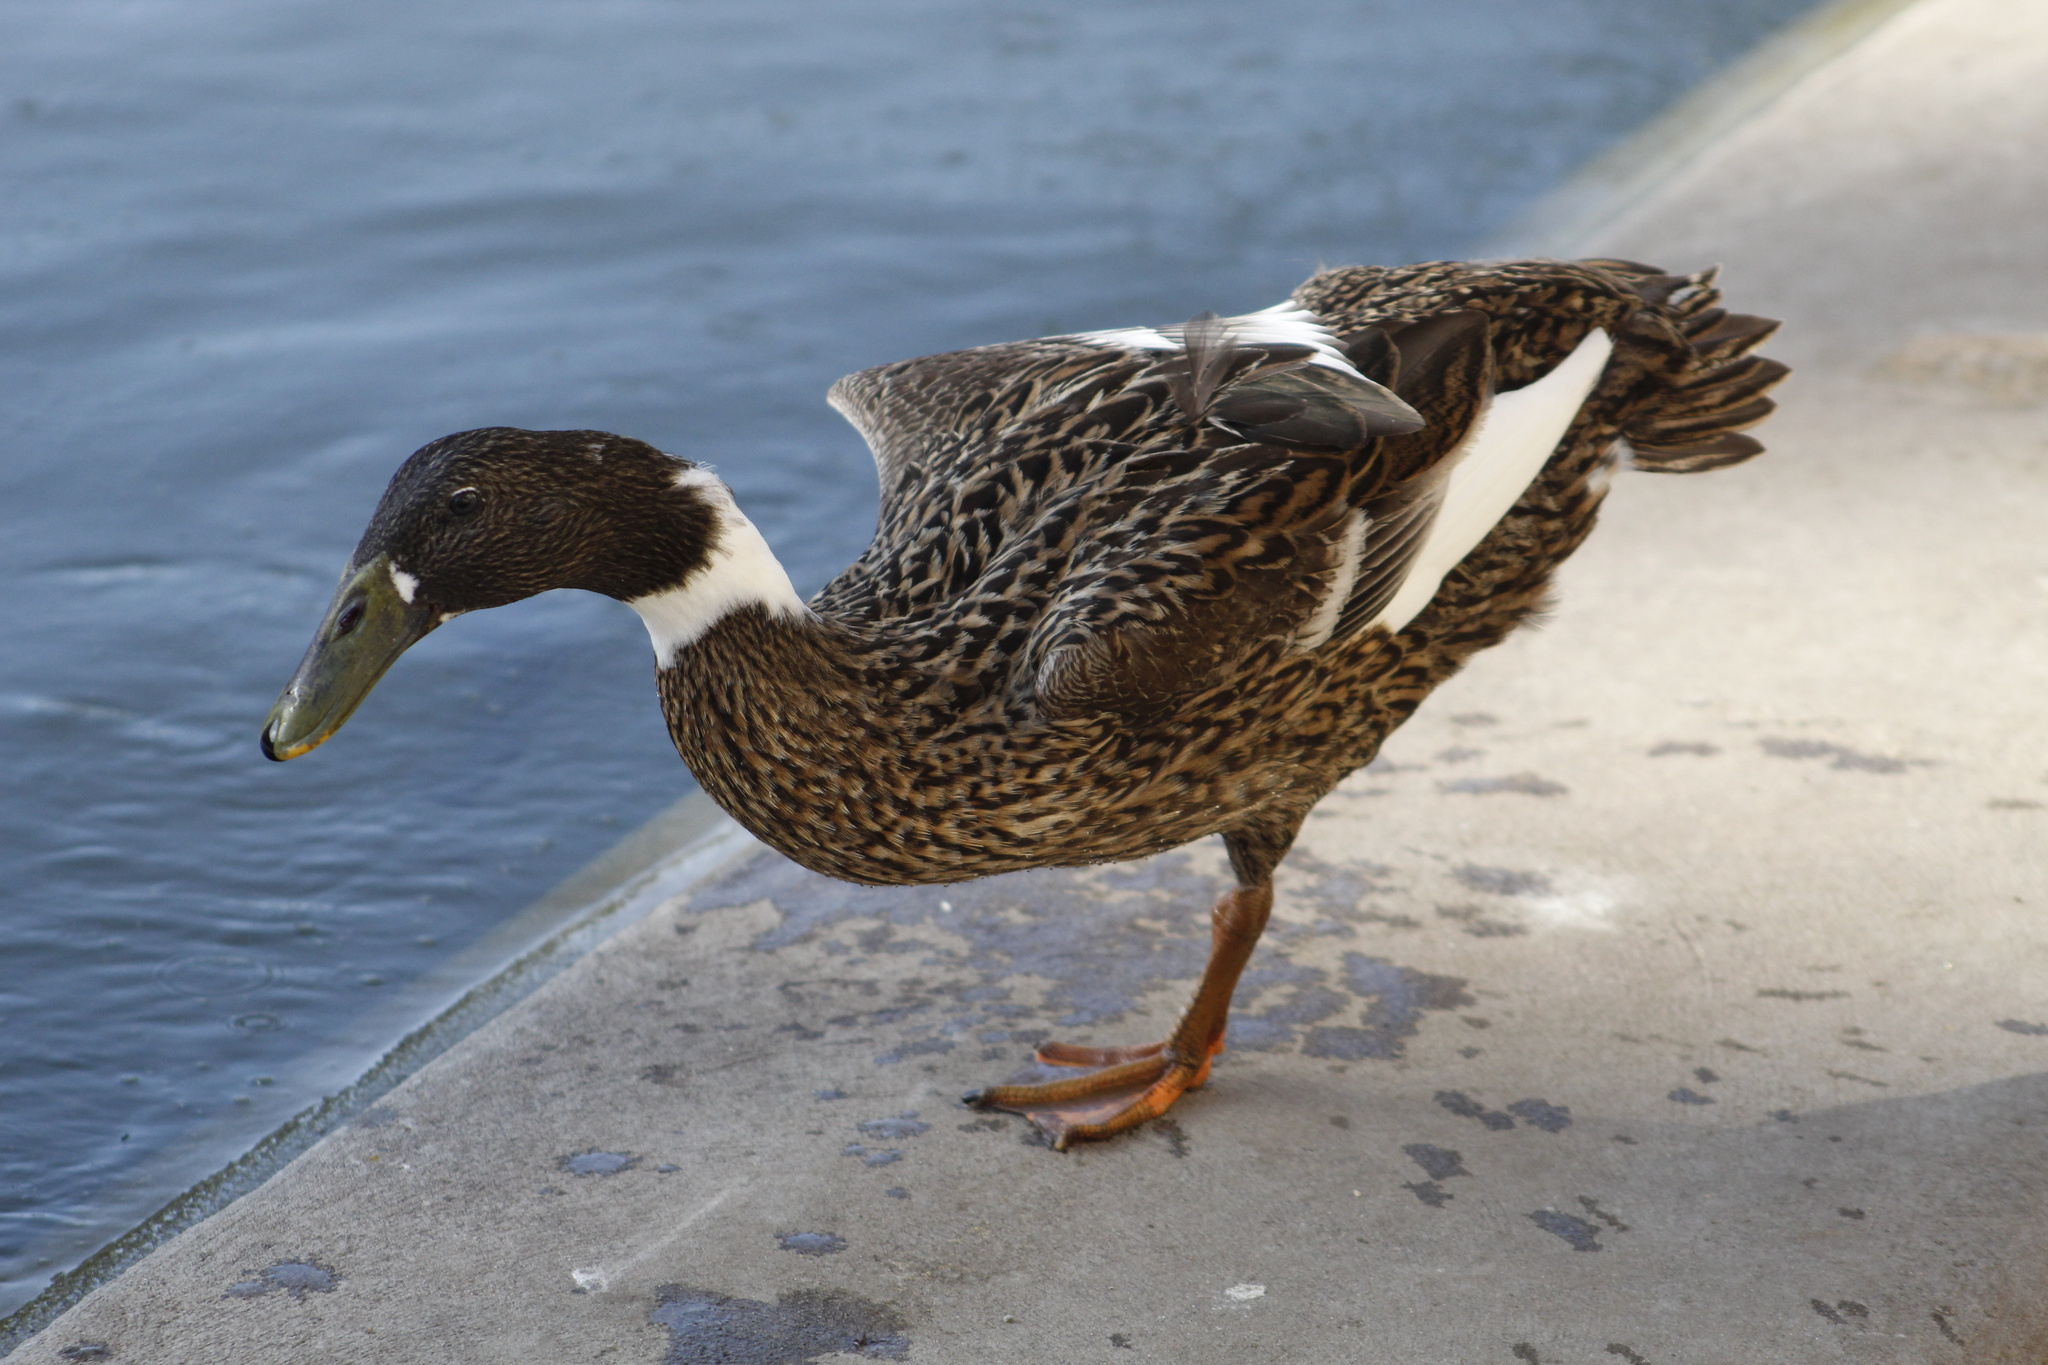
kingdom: Animalia
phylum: Chordata
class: Aves
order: Anseriformes
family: Anatidae
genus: Anas
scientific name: Anas platyrhynchos
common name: Mallard
